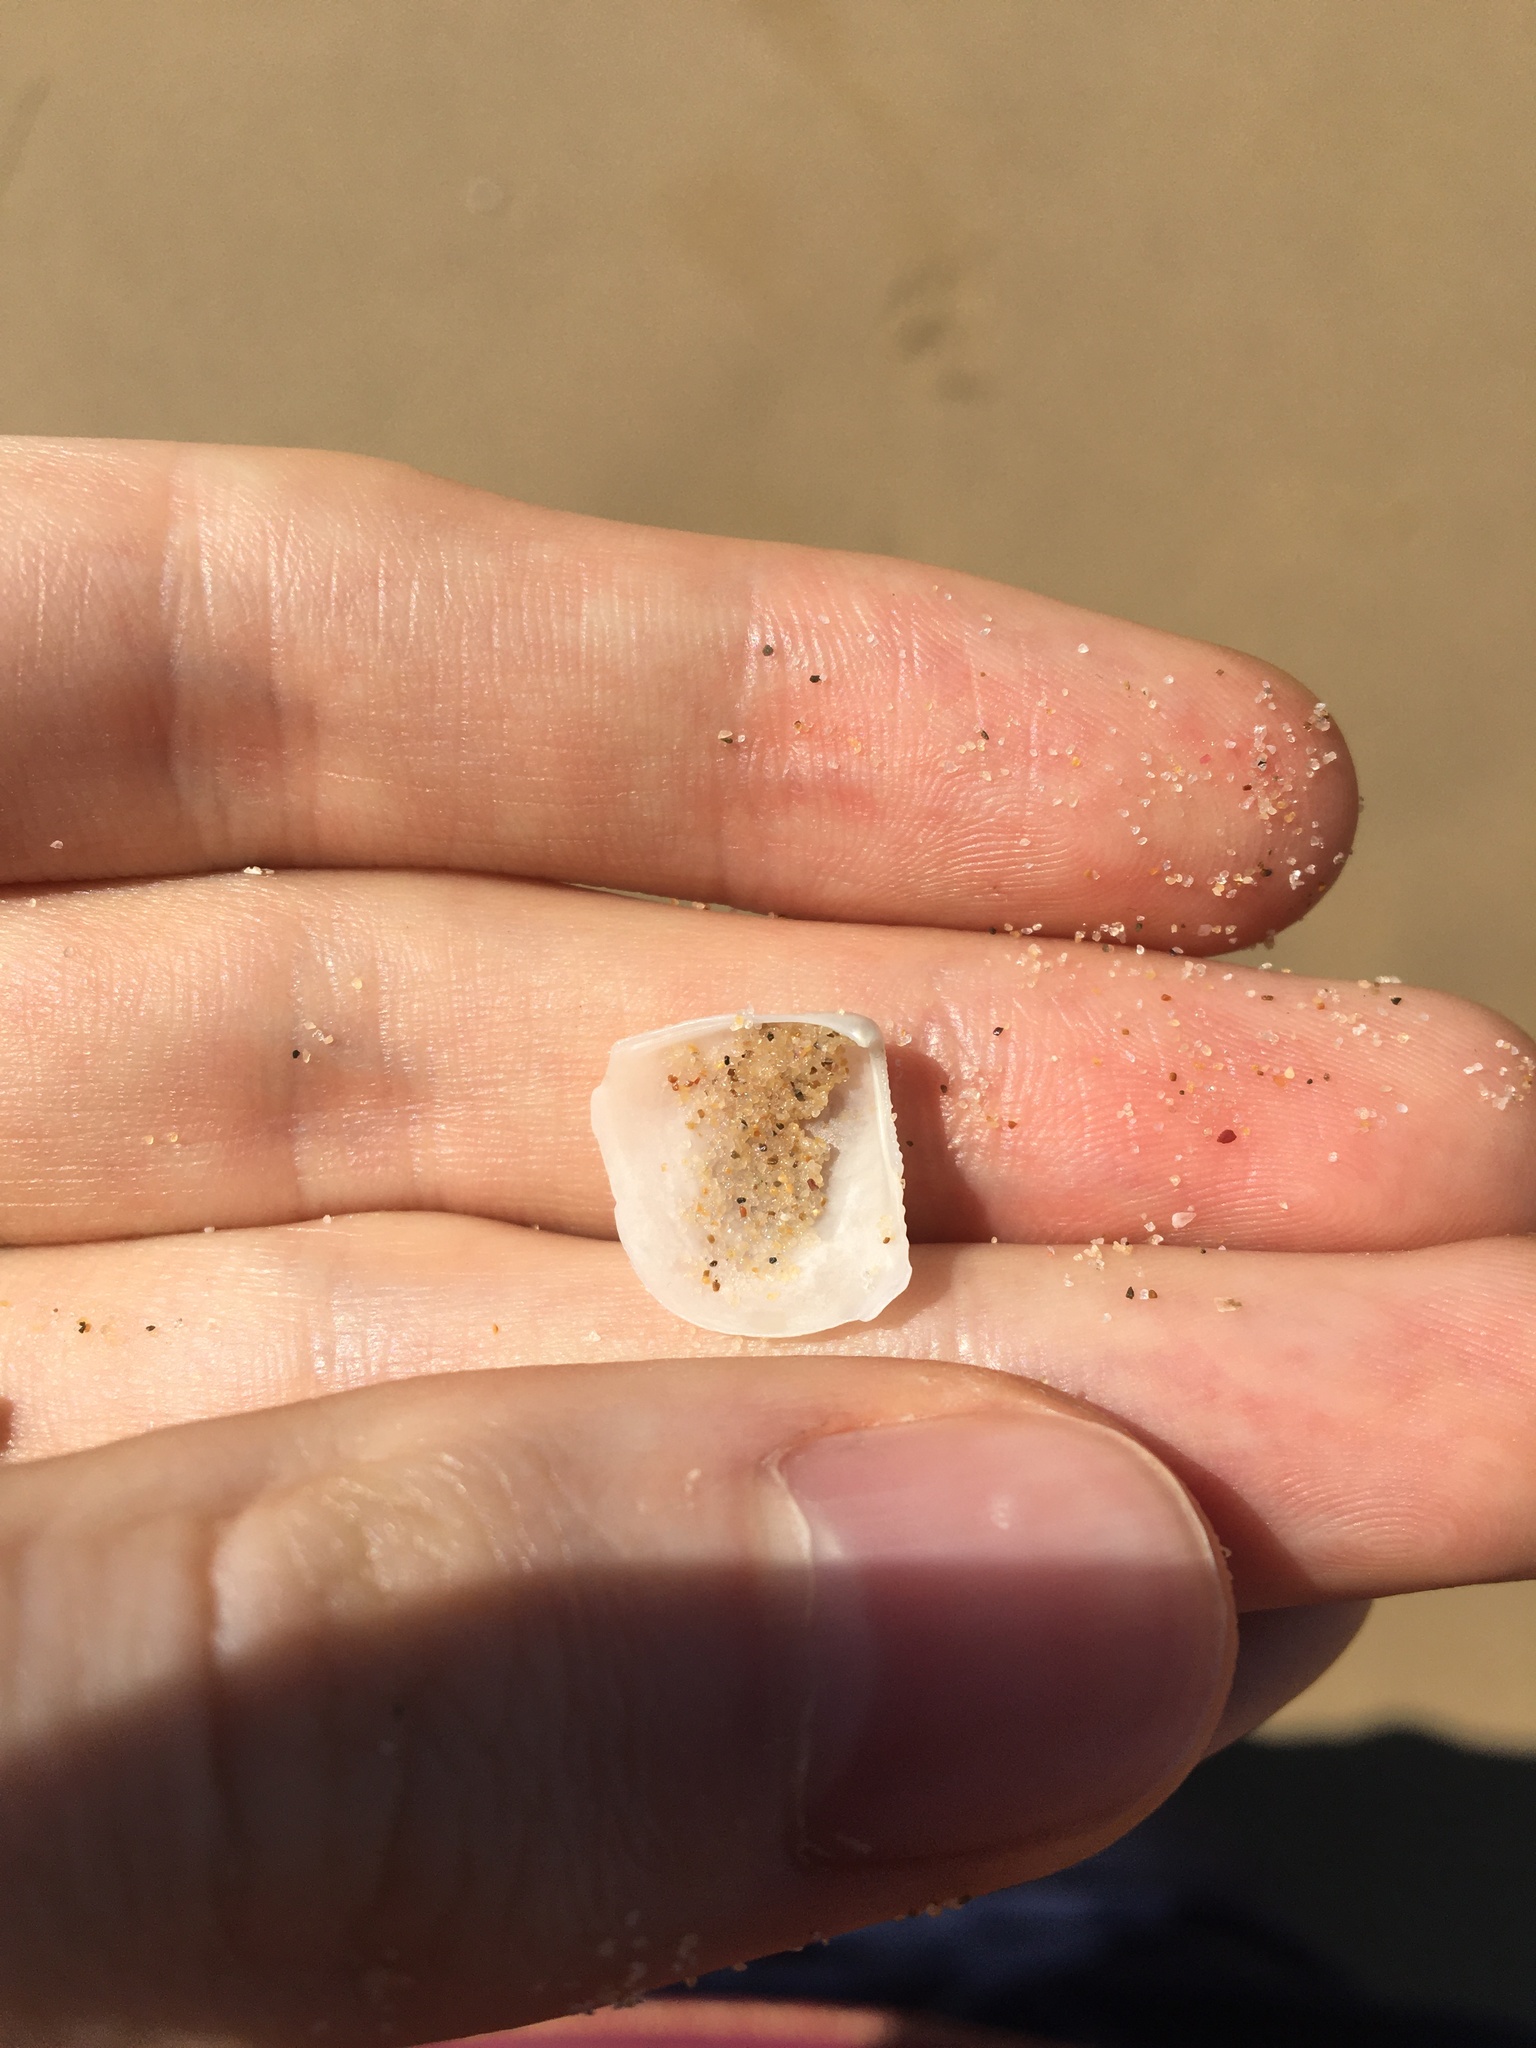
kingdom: Animalia
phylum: Mollusca
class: Bivalvia
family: Myochamidae
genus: Myadora
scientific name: Myadora brevis
